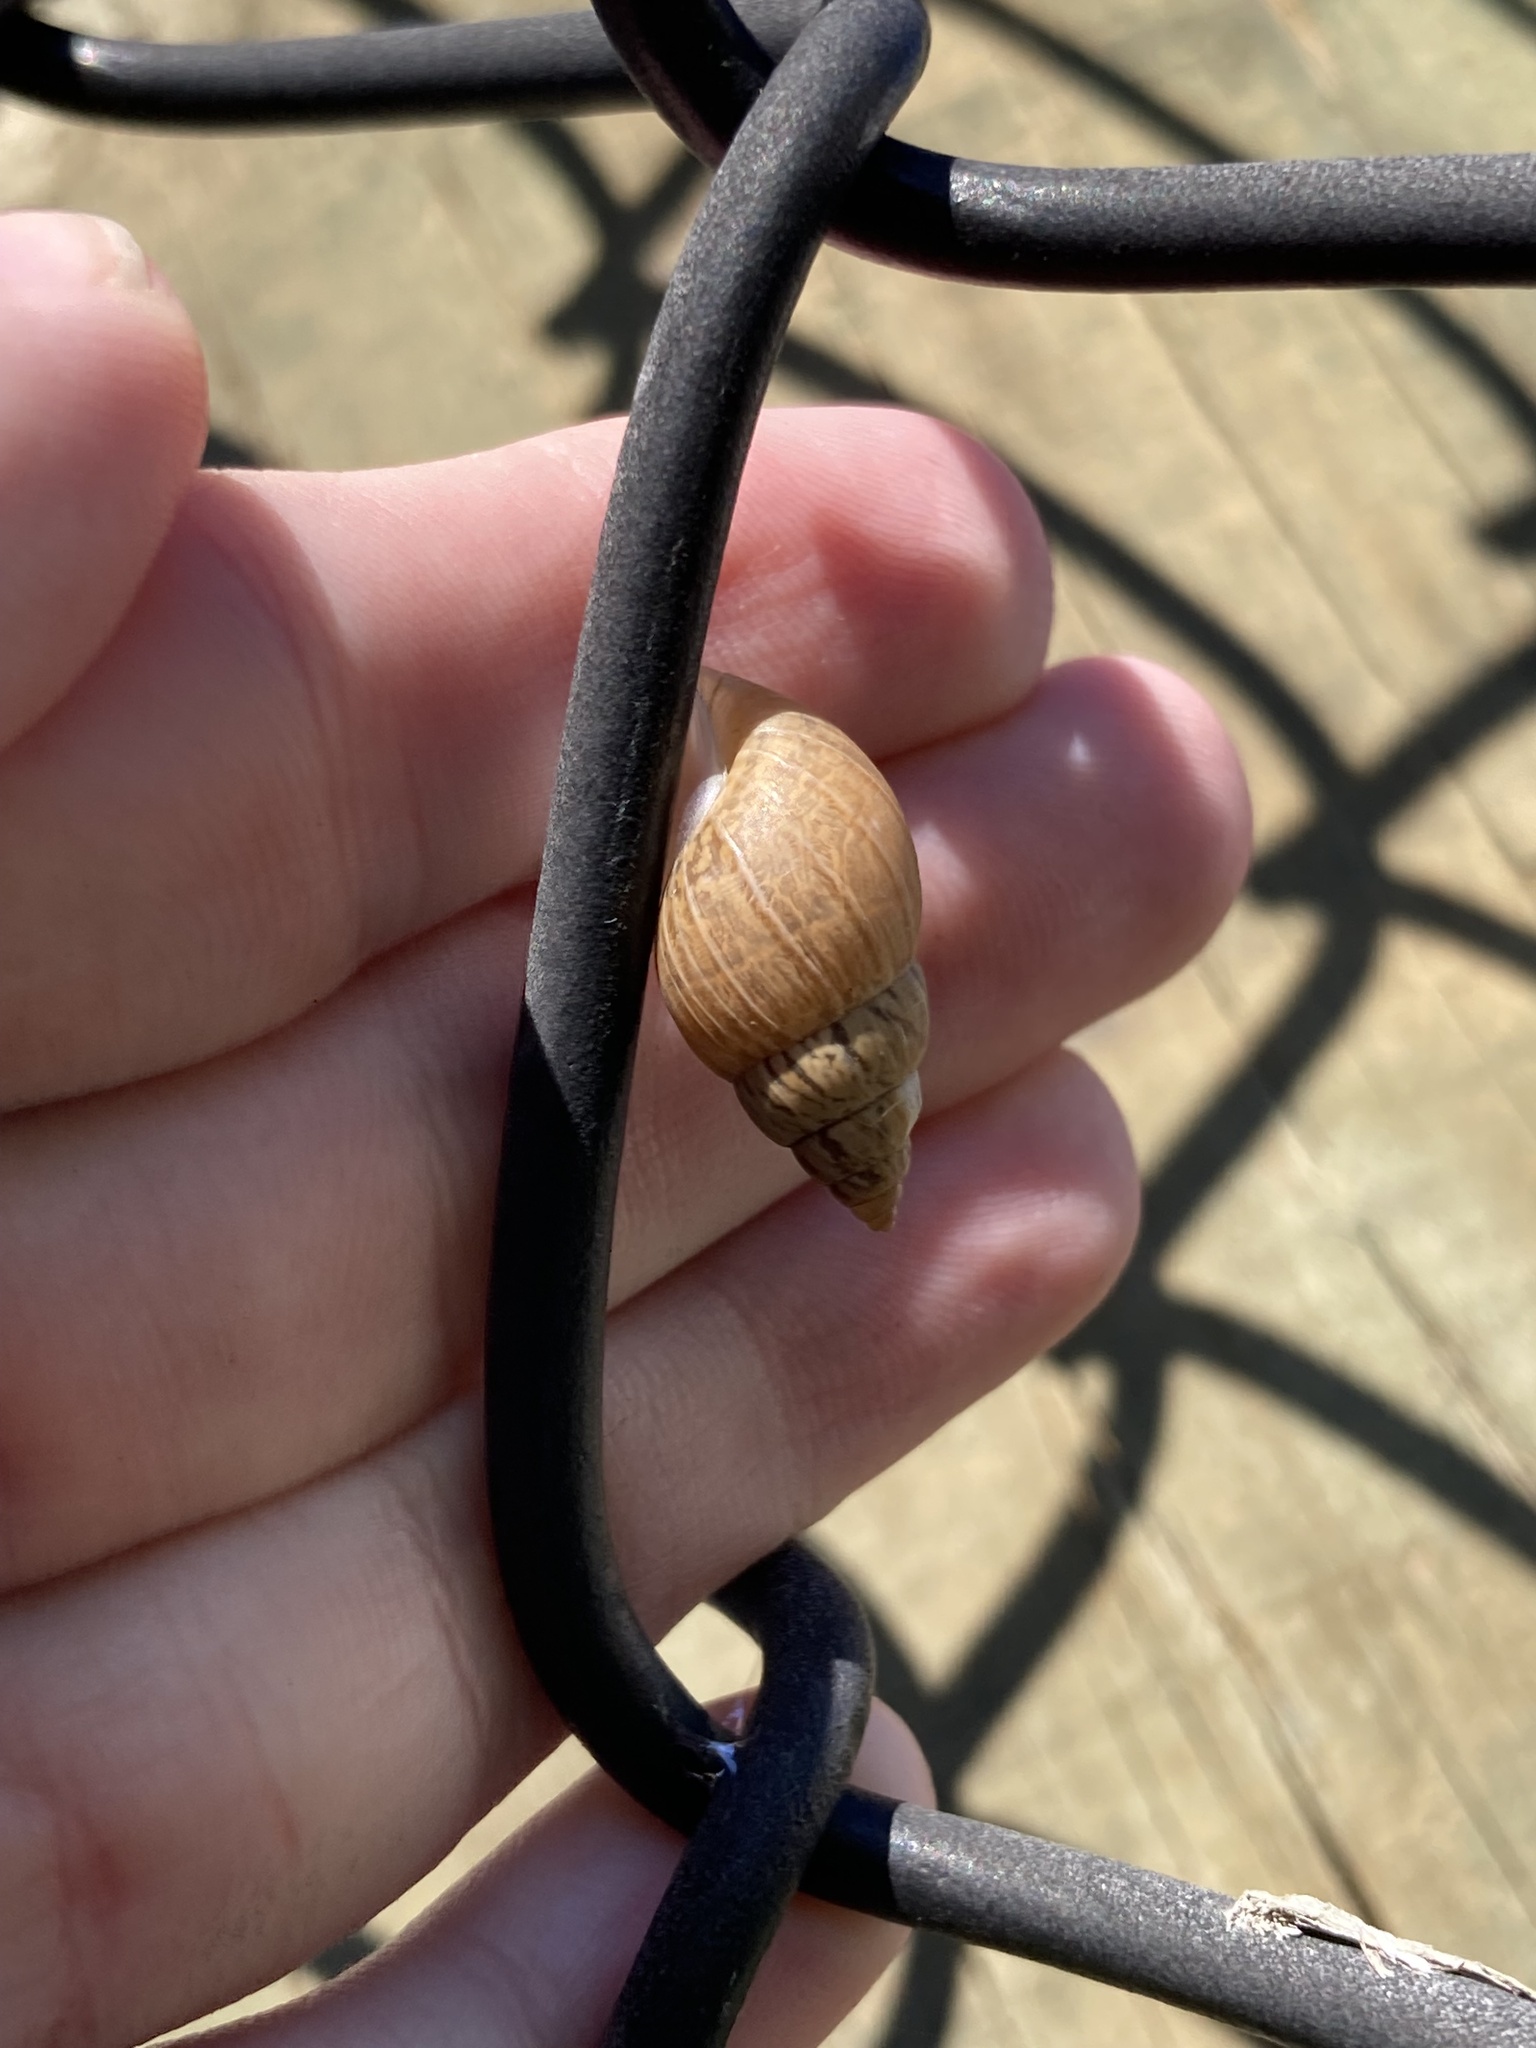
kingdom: Animalia
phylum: Mollusca
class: Gastropoda
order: Stylommatophora
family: Bulimulidae
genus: Bulimulus
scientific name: Bulimulus bonariensis
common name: Snail
